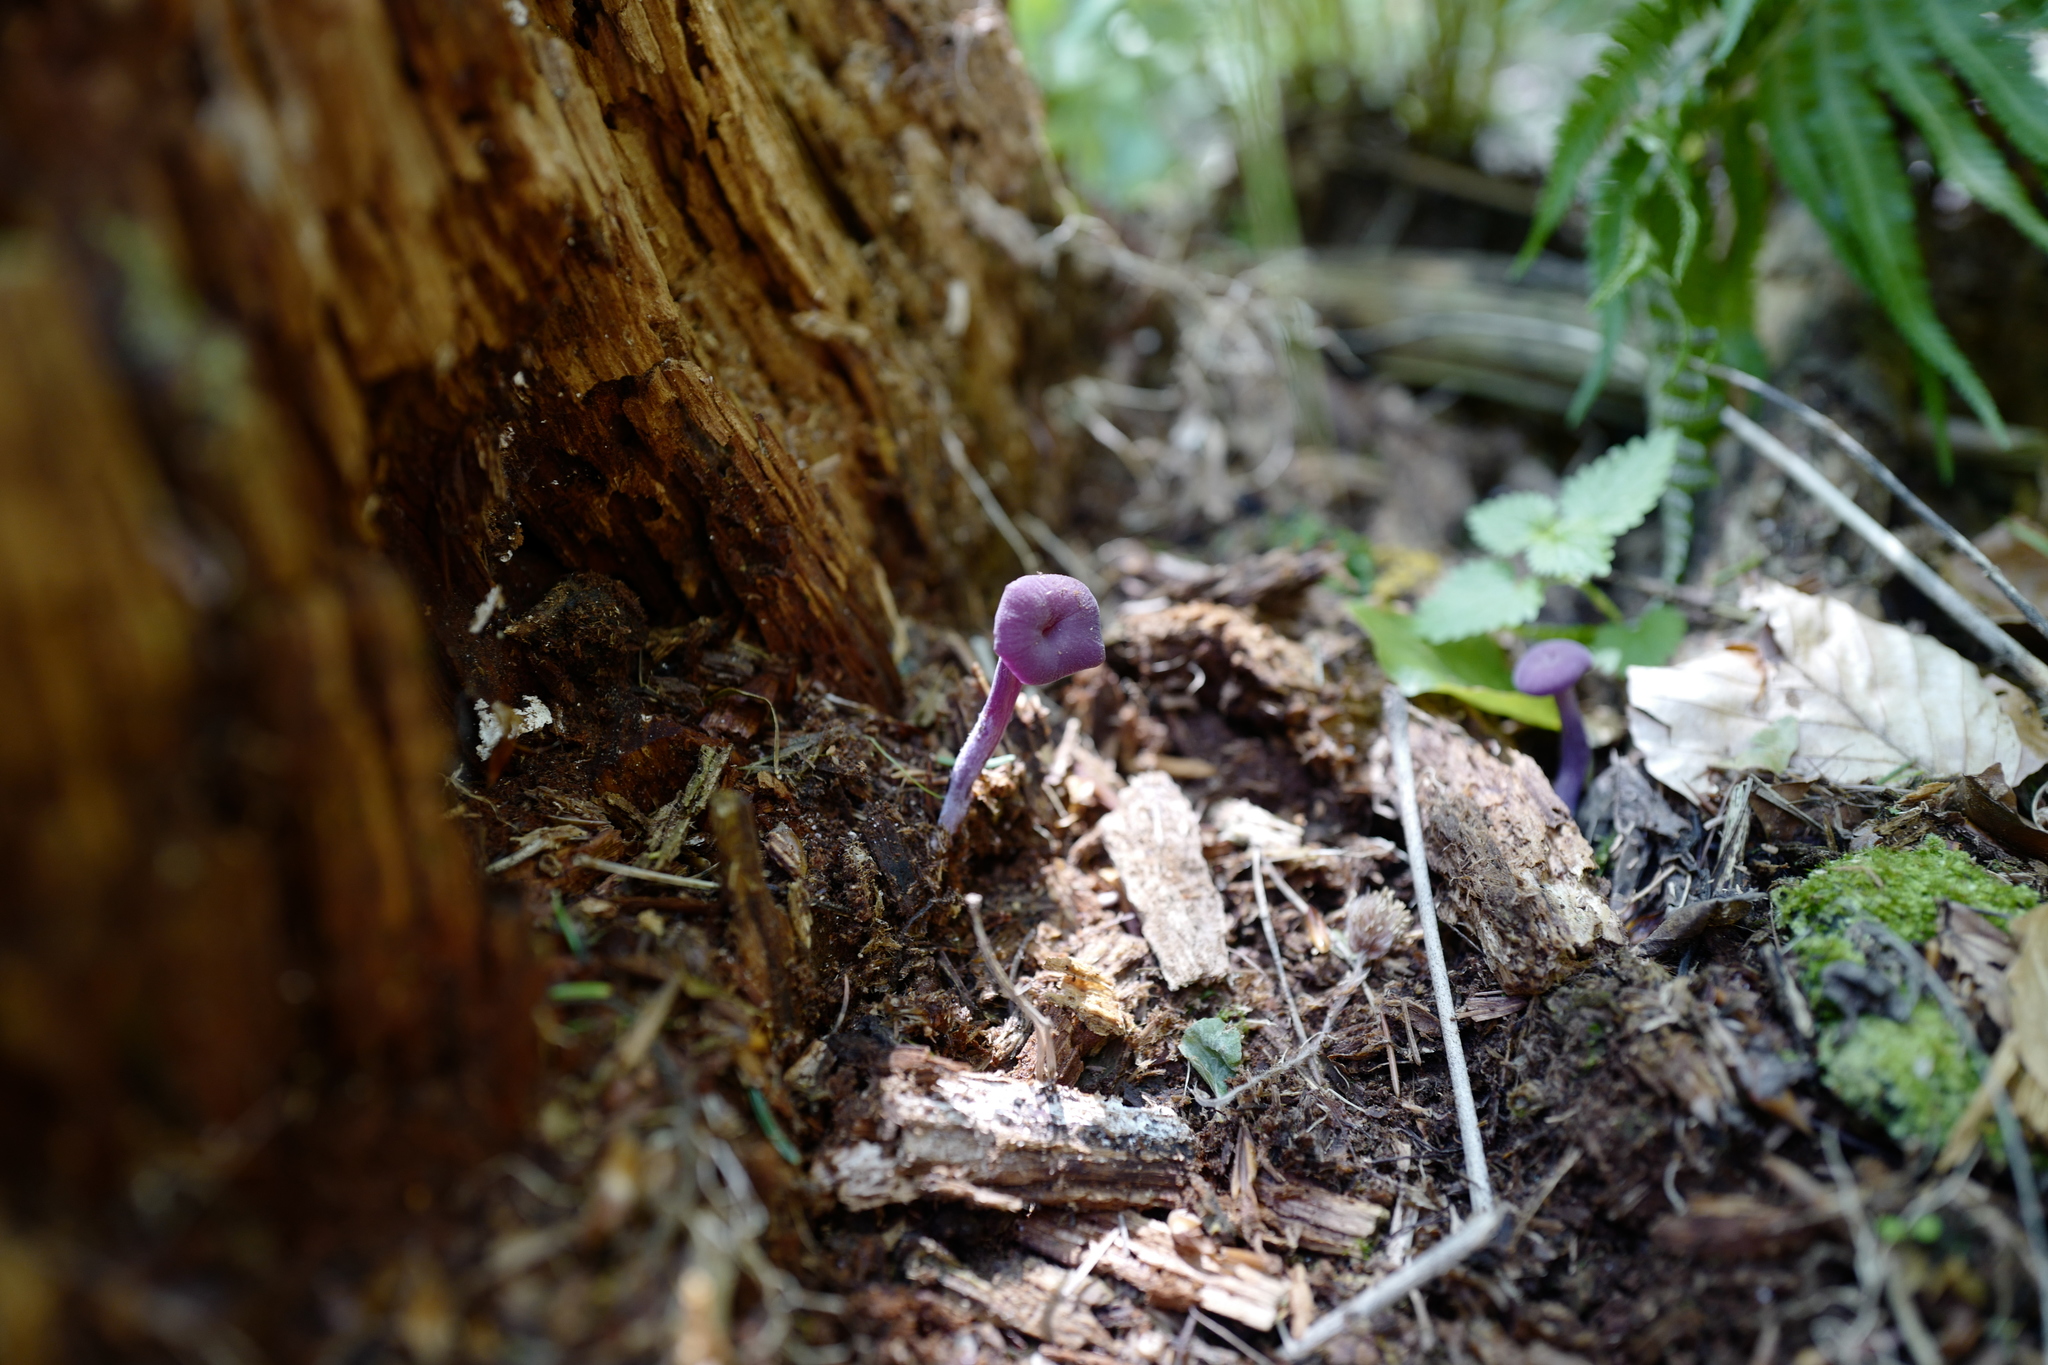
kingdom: Fungi
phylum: Basidiomycota
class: Agaricomycetes
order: Agaricales
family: Hydnangiaceae
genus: Laccaria
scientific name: Laccaria amethystina
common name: Amethyst deceiver
